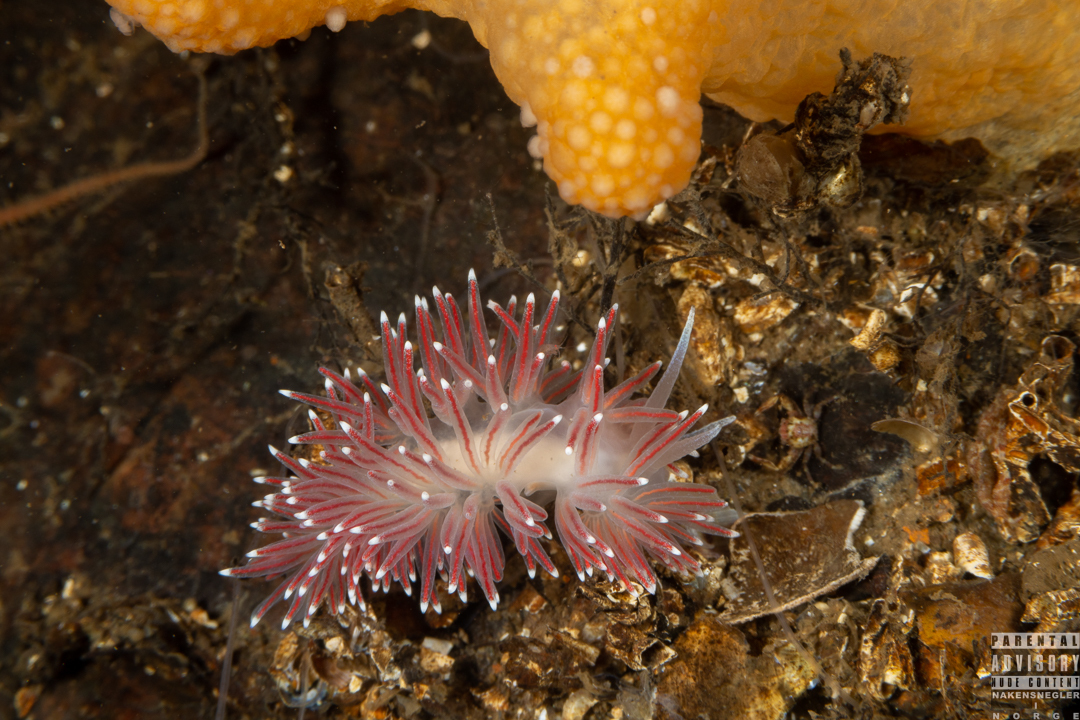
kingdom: Animalia
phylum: Mollusca
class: Gastropoda
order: Nudibranchia
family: Flabellinidae
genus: Carronella
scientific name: Carronella pellucida
